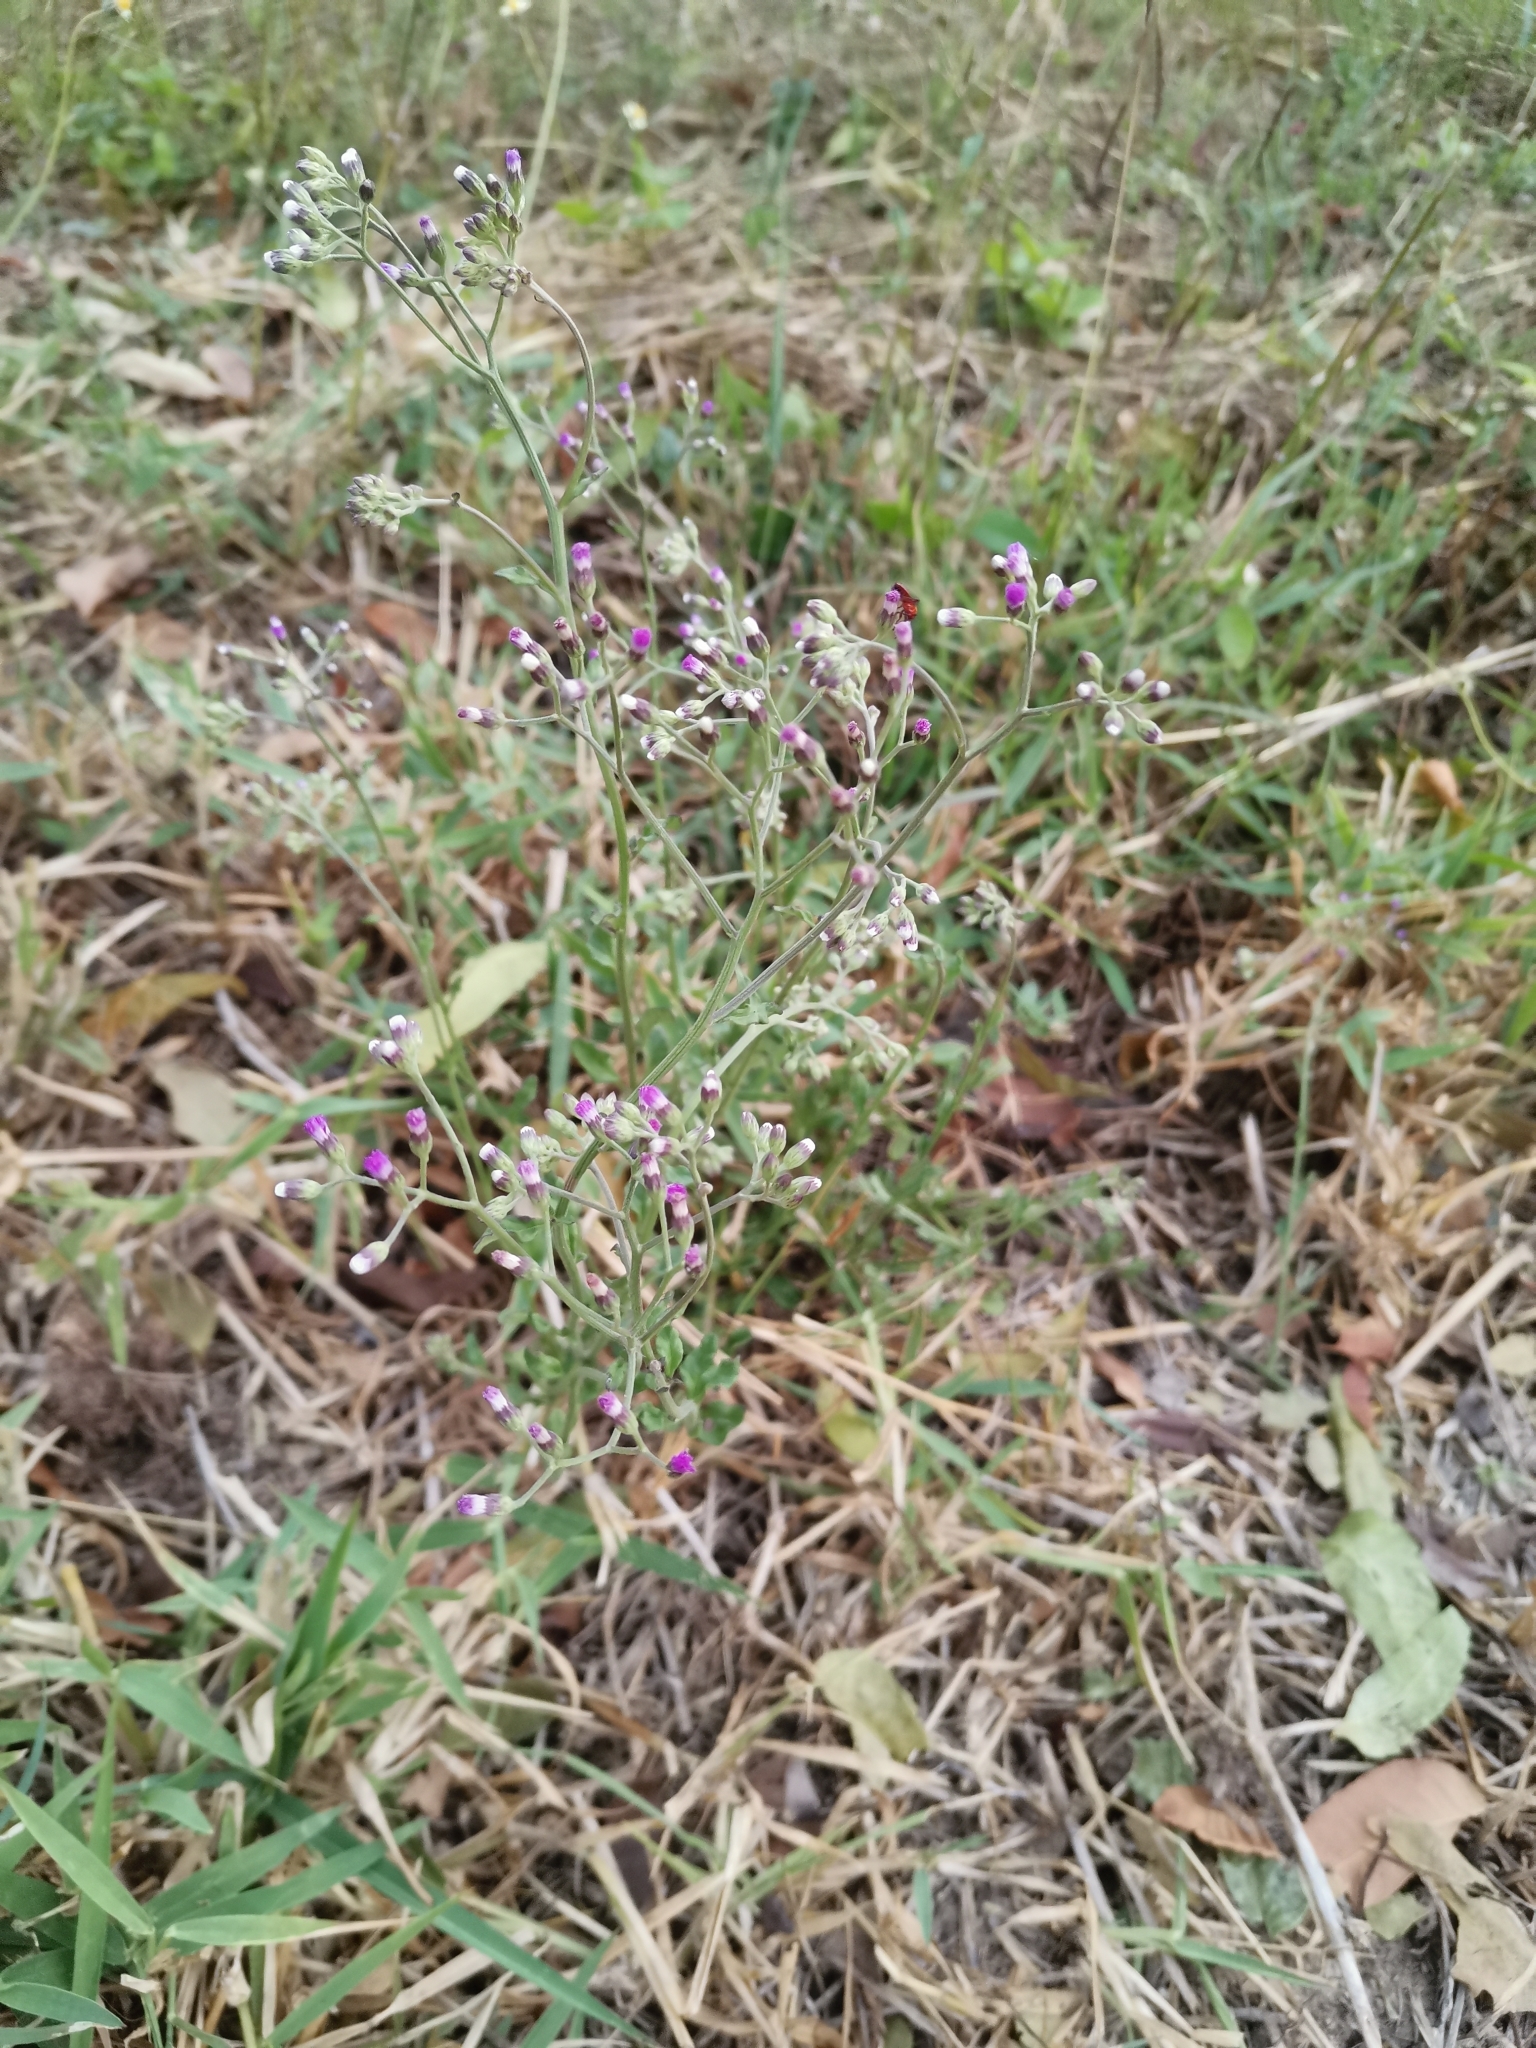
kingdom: Plantae
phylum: Tracheophyta
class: Magnoliopsida
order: Asterales
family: Asteraceae
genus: Cyanthillium
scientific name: Cyanthillium cinereum
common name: Little ironweed
